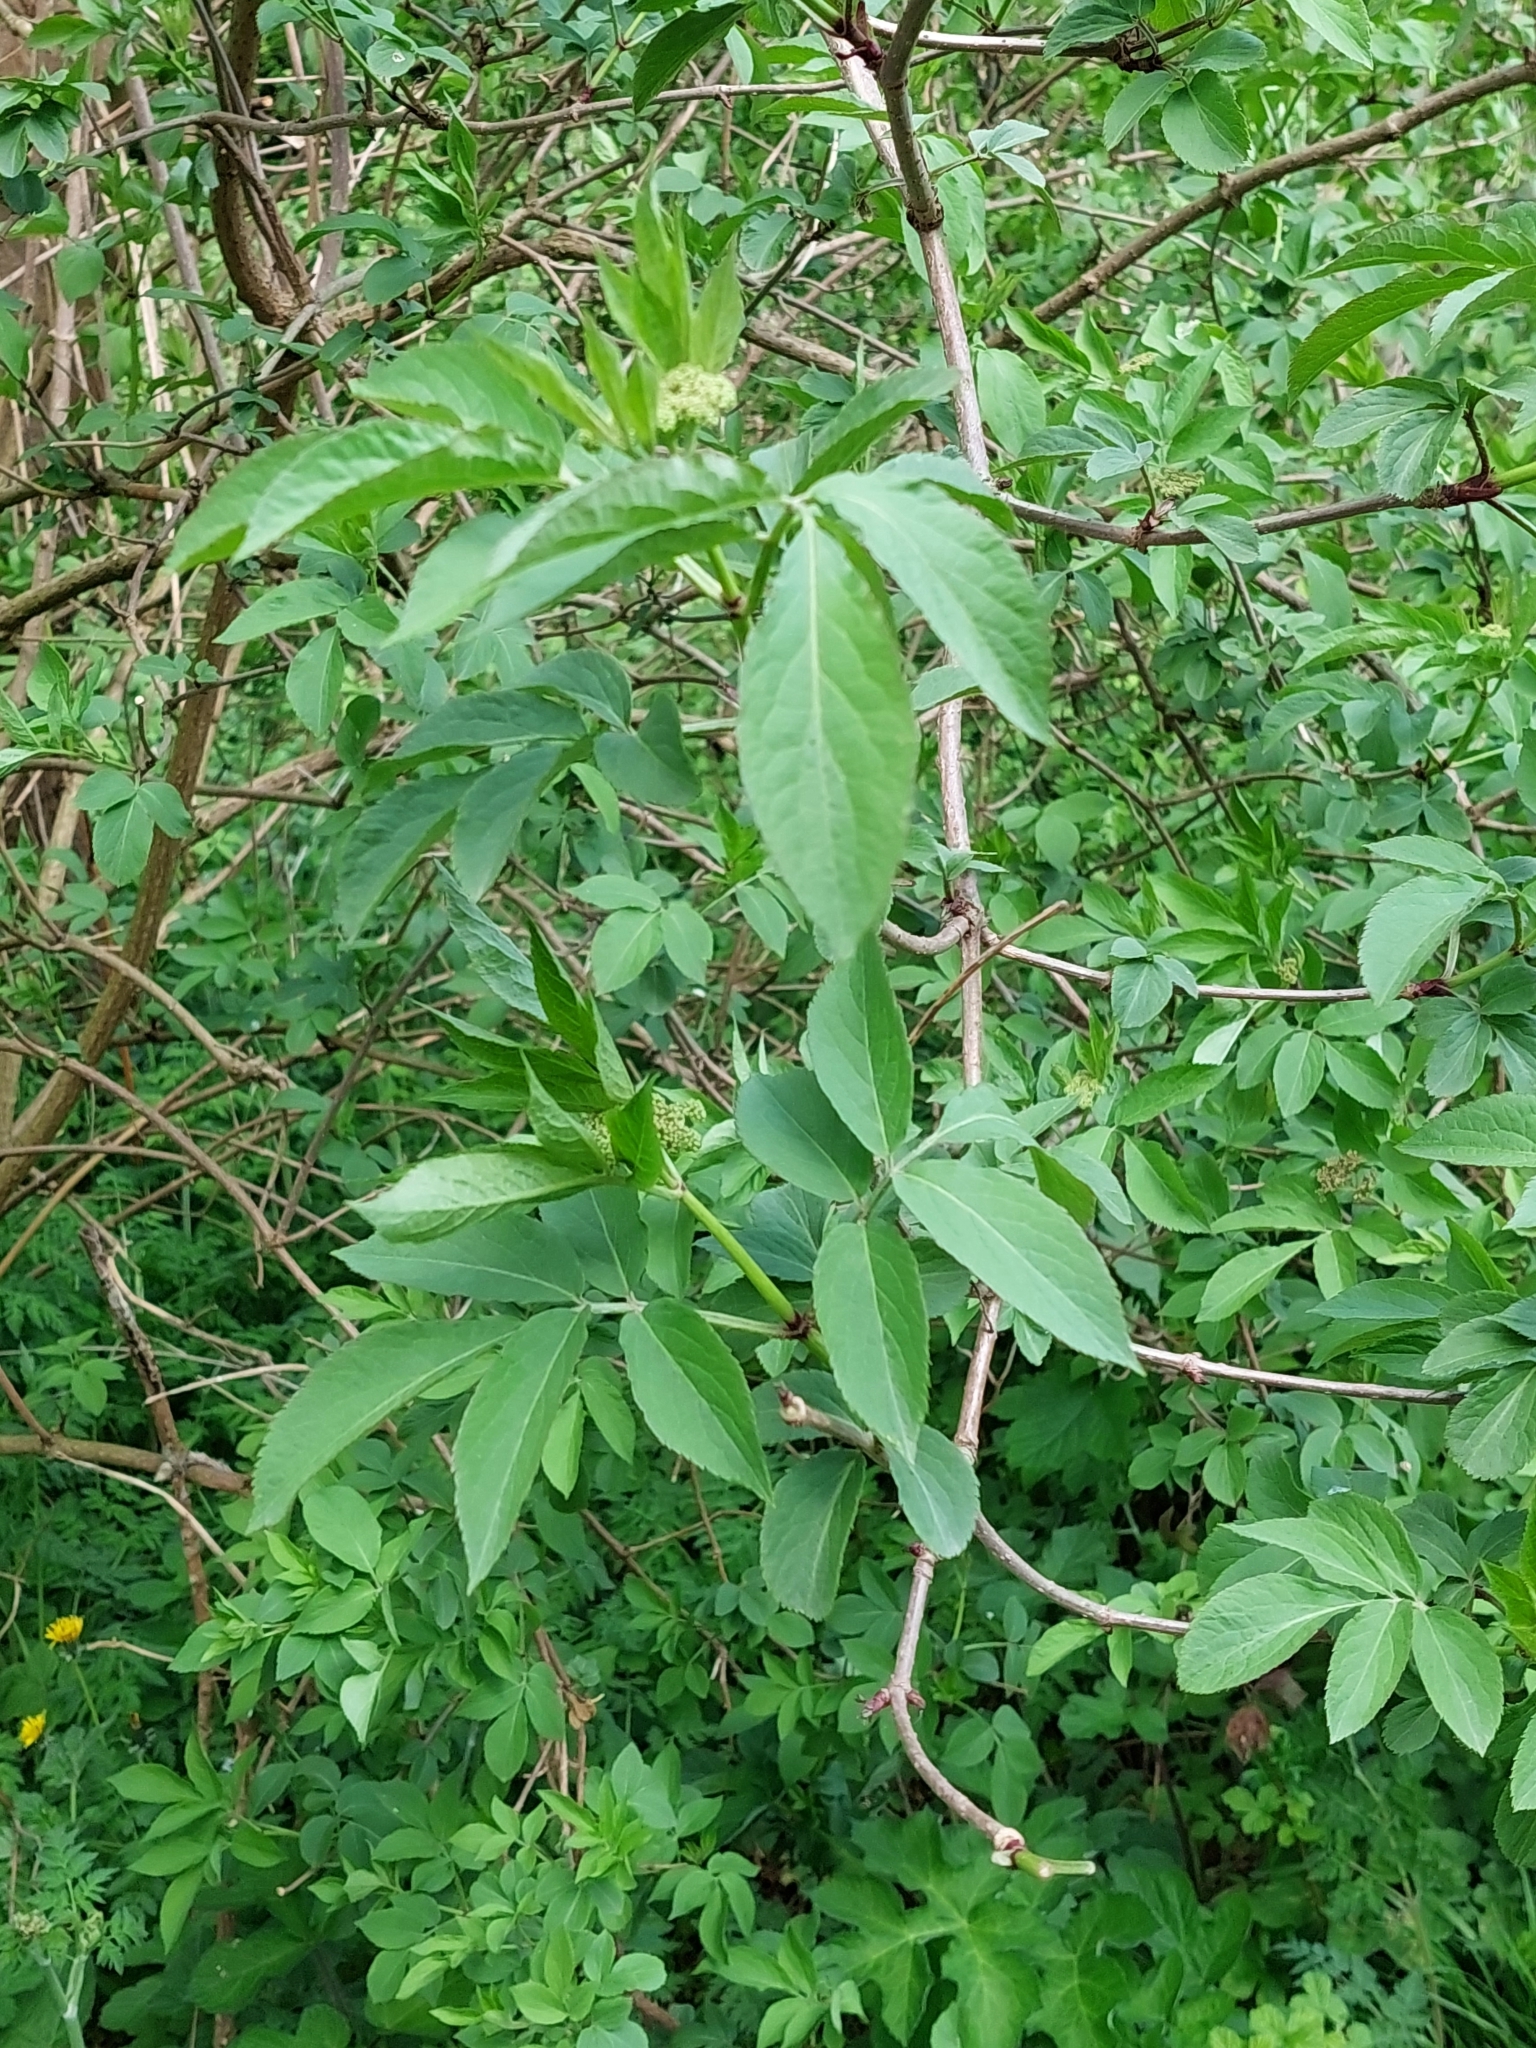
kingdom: Plantae
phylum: Tracheophyta
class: Magnoliopsida
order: Dipsacales
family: Viburnaceae
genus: Sambucus
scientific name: Sambucus nigra
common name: Elder
